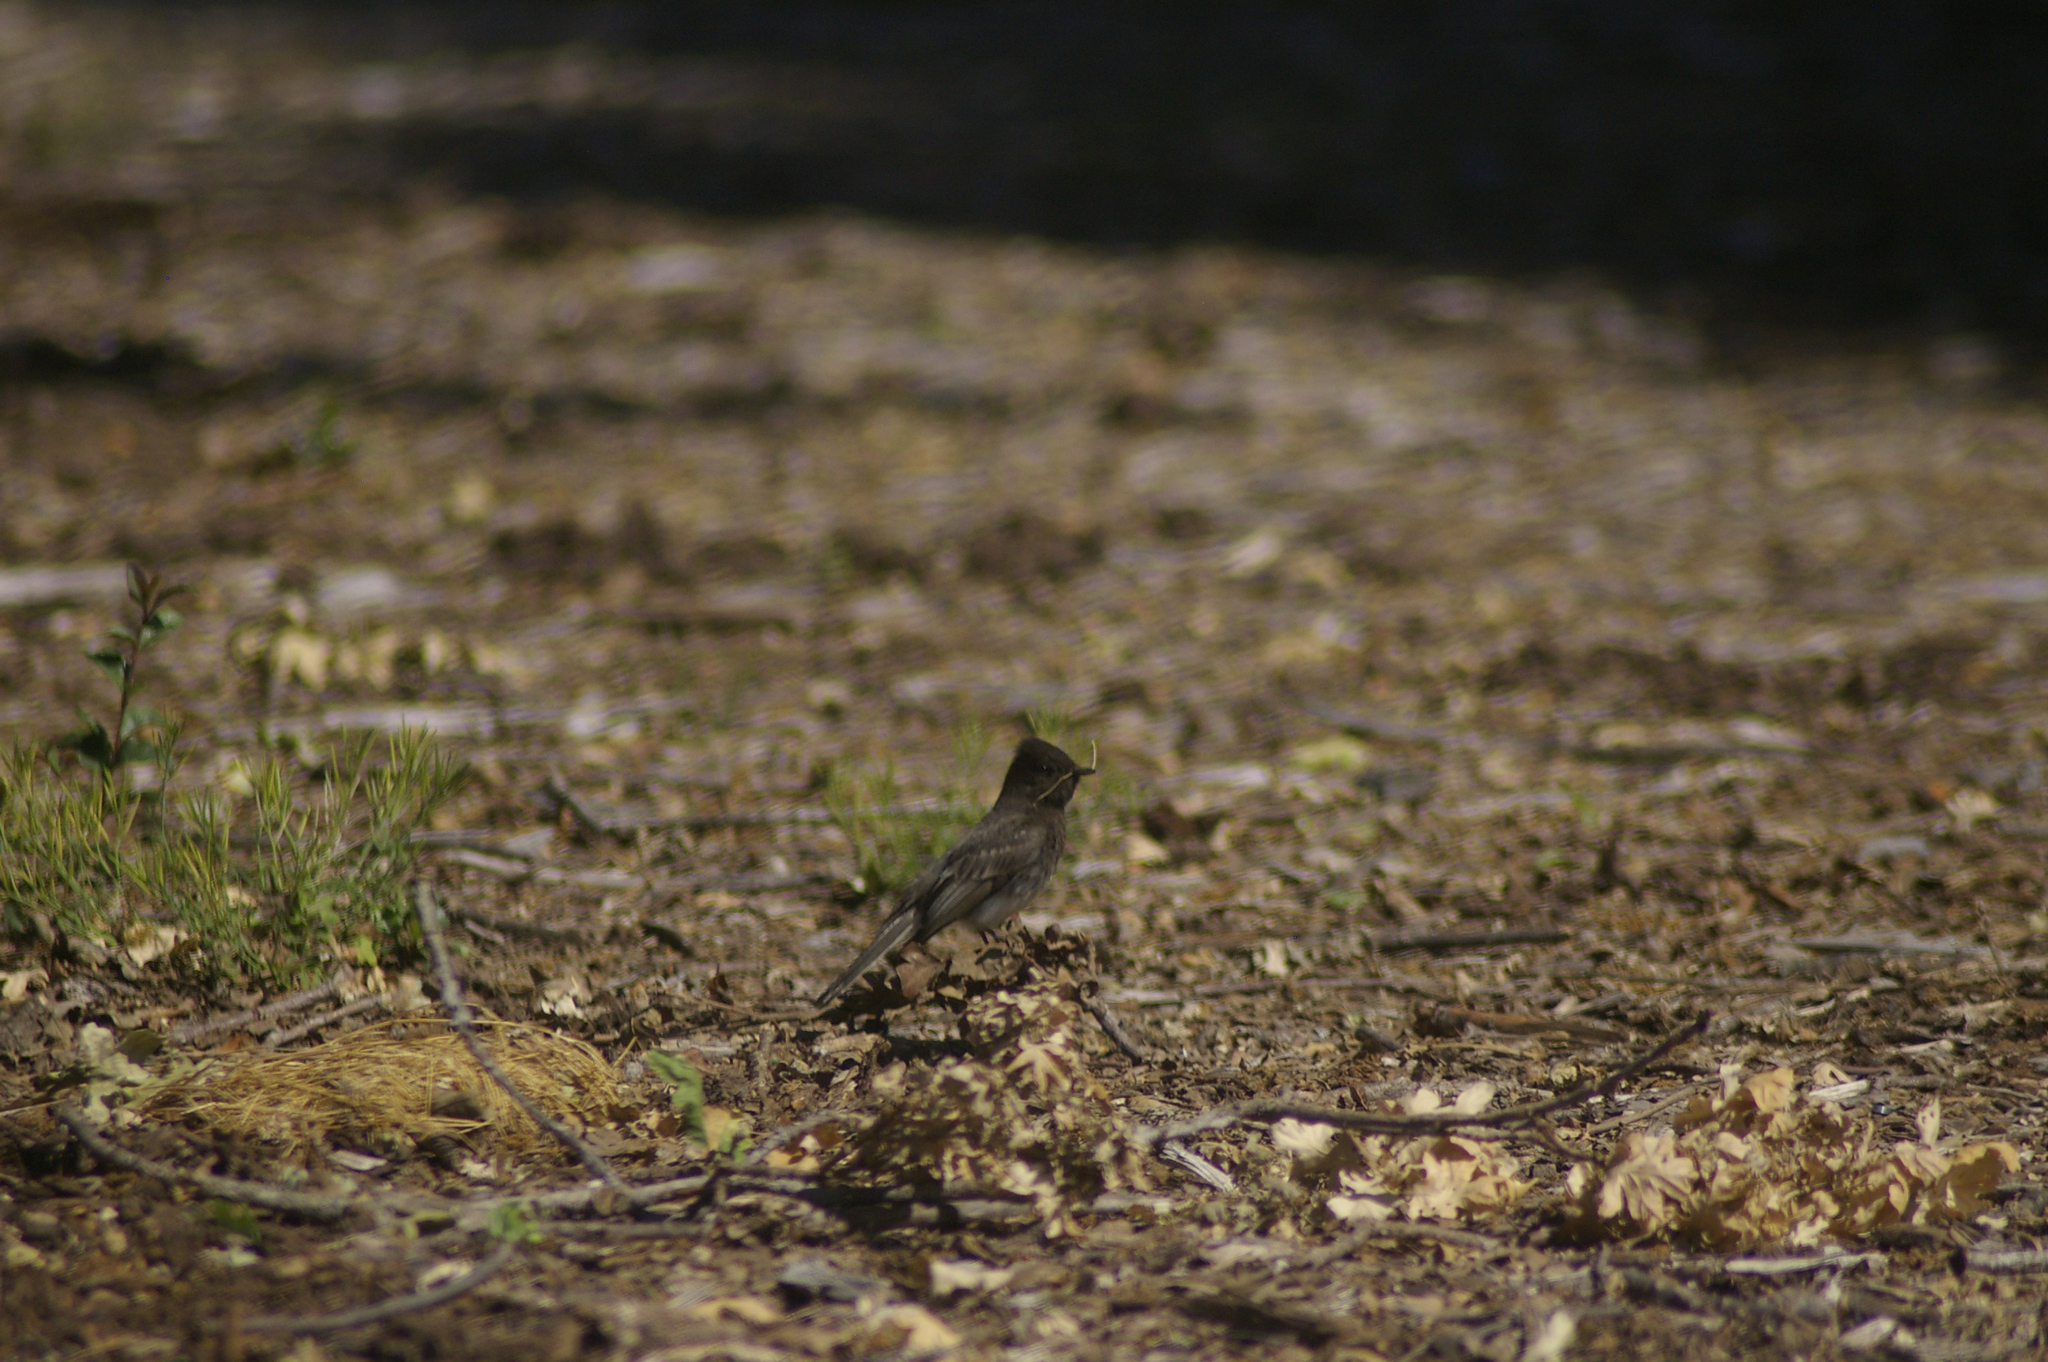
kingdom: Animalia
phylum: Chordata
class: Aves
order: Passeriformes
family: Tyrannidae
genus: Sayornis
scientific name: Sayornis nigricans
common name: Black phoebe
